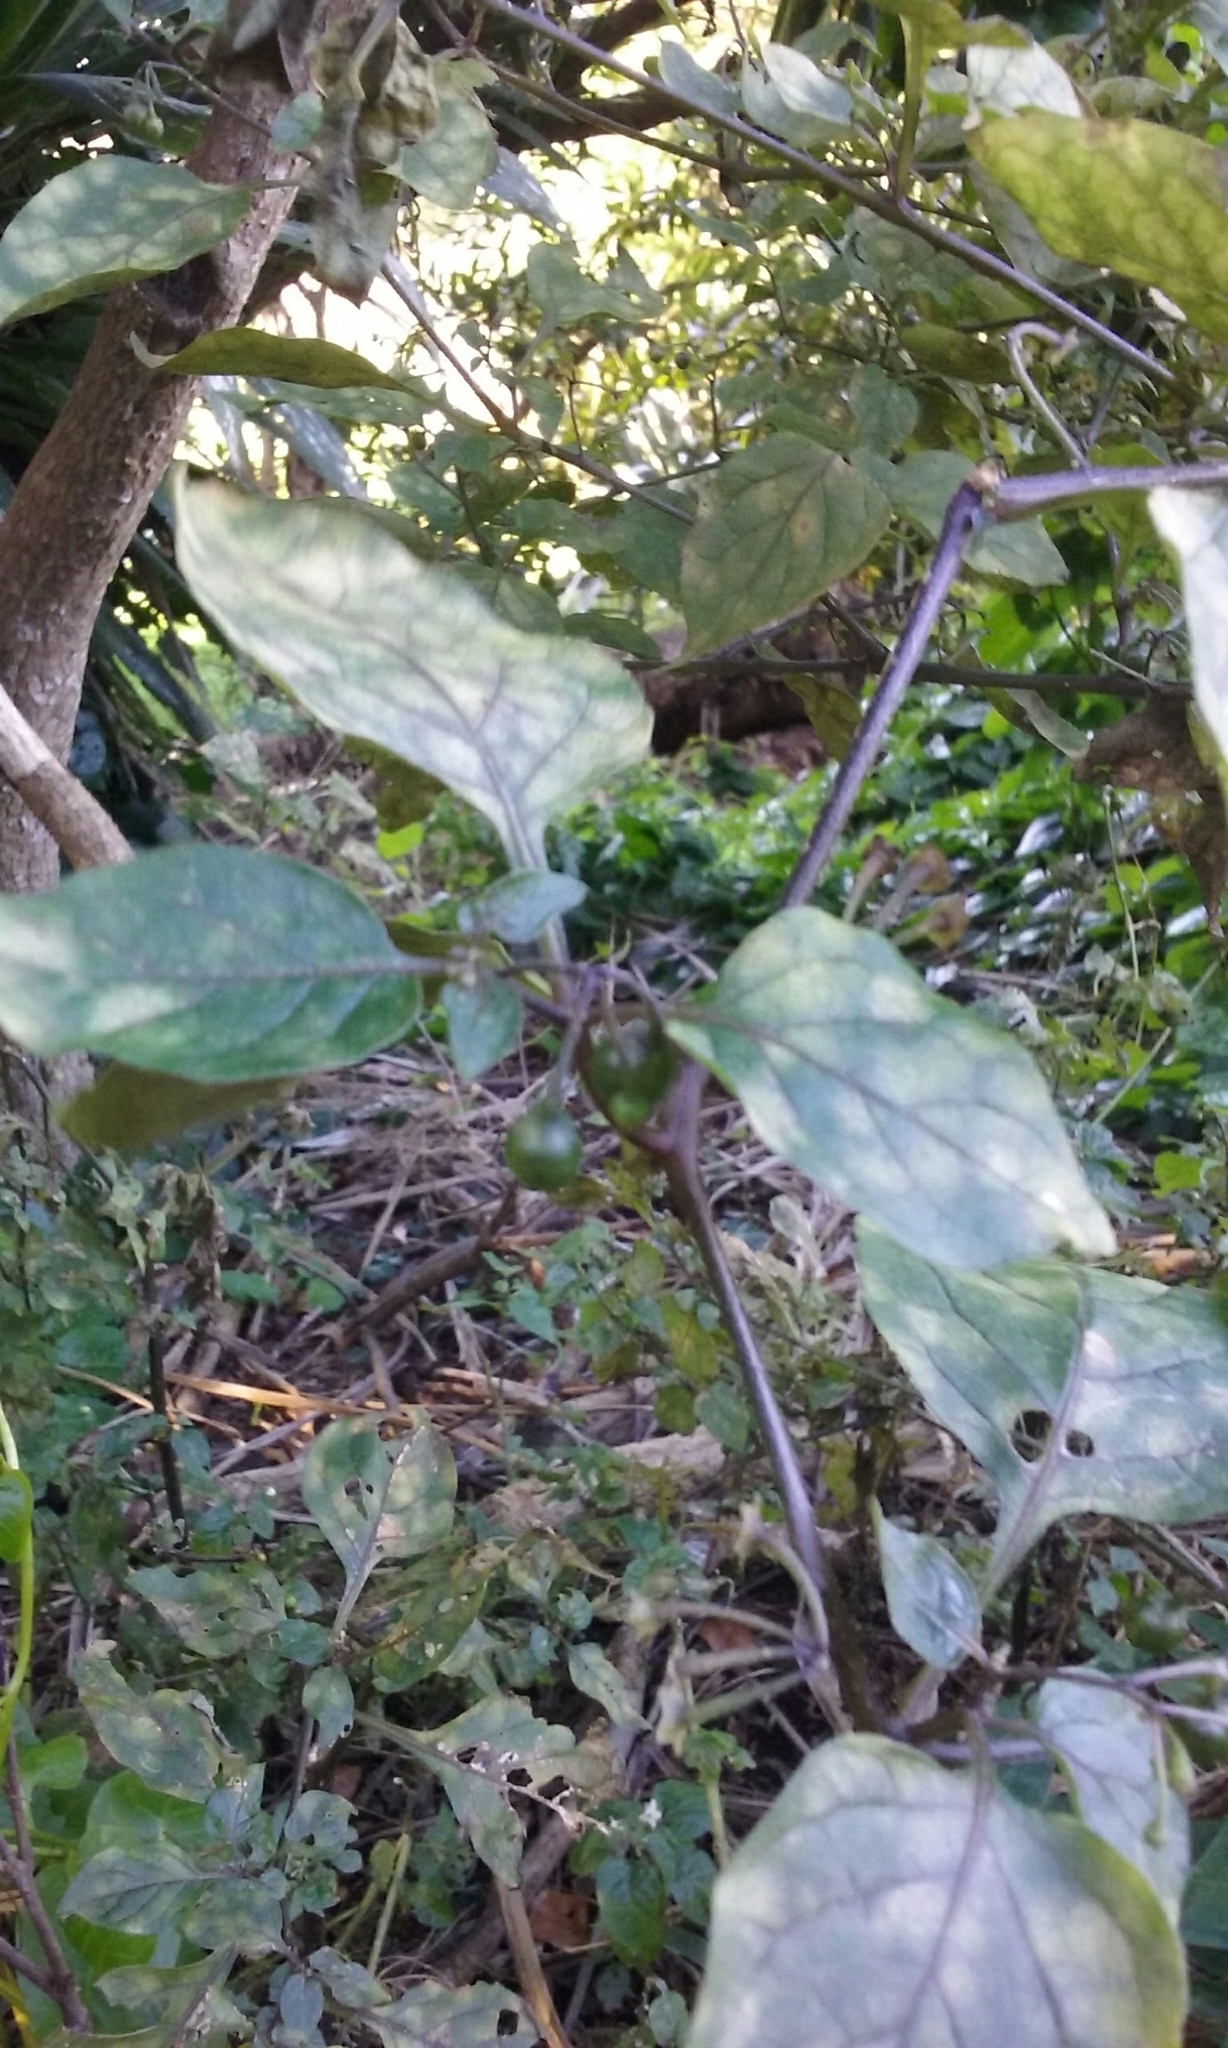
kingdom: Plantae
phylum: Tracheophyta
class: Magnoliopsida
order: Solanales
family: Solanaceae
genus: Solanum
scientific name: Solanum nigrum
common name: Black nightshade
